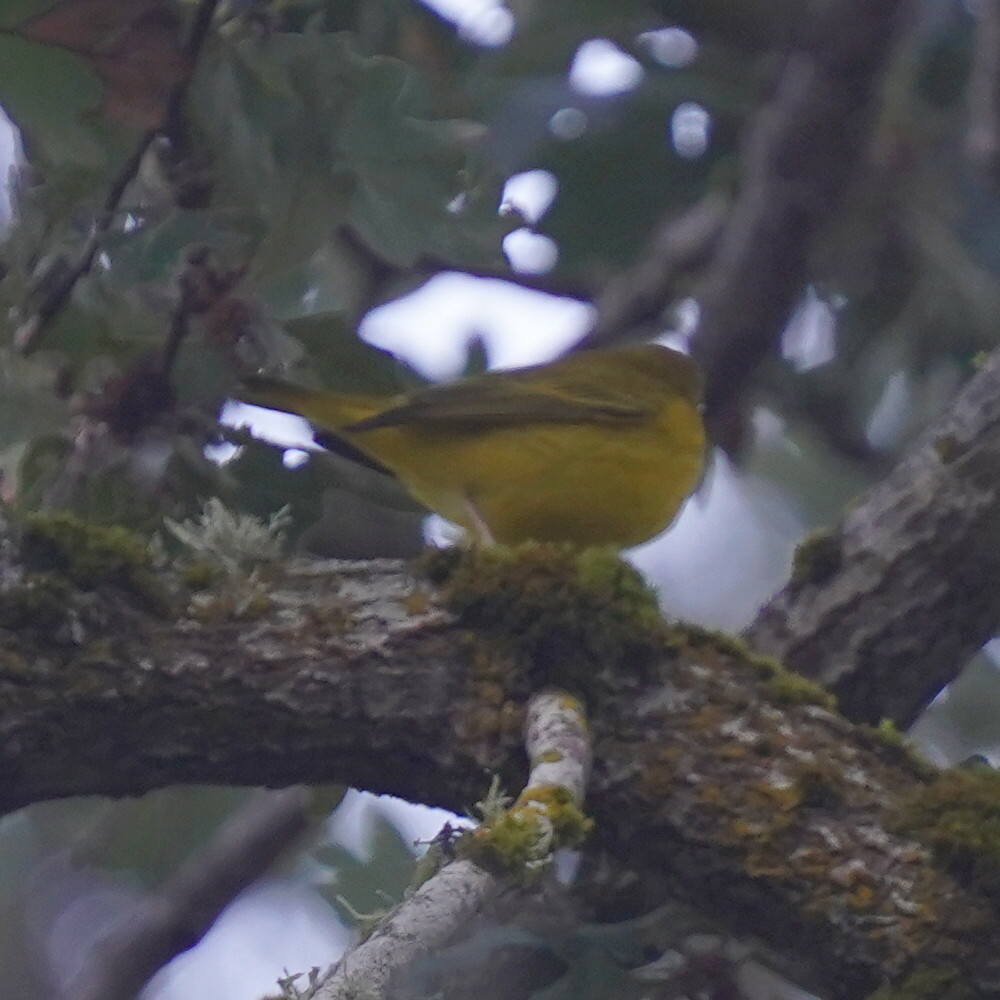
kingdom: Animalia
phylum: Chordata
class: Aves
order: Passeriformes
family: Parulidae
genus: Setophaga
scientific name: Setophaga petechia
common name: Yellow warbler
